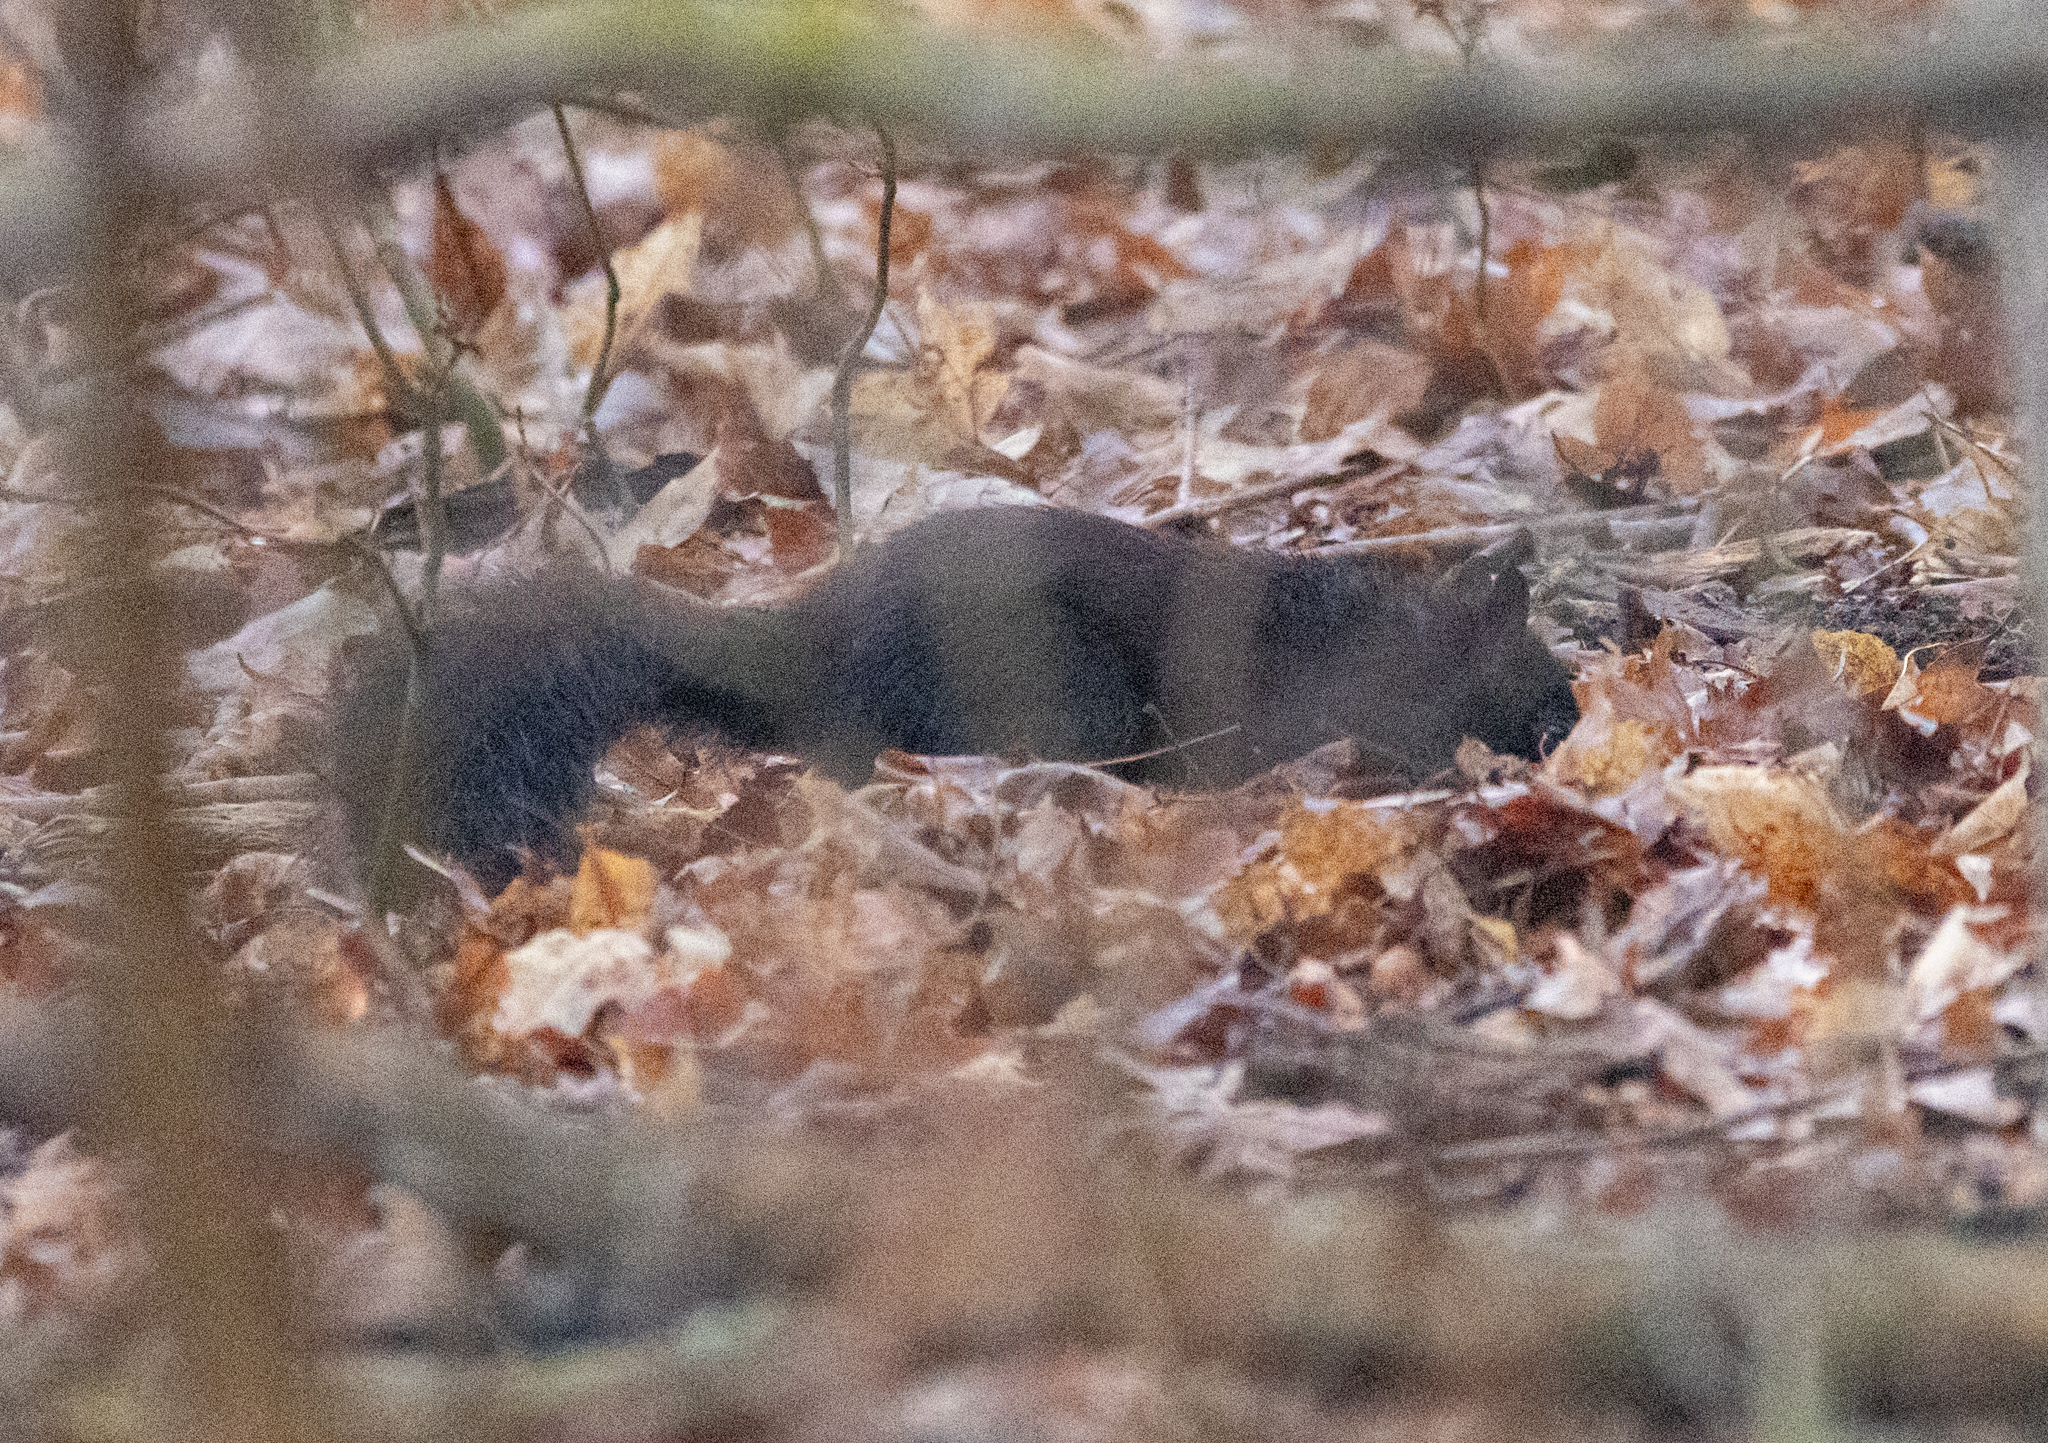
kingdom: Animalia
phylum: Chordata
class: Mammalia
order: Rodentia
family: Sciuridae
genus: Sciurus
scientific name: Sciurus carolinensis
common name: Eastern gray squirrel
